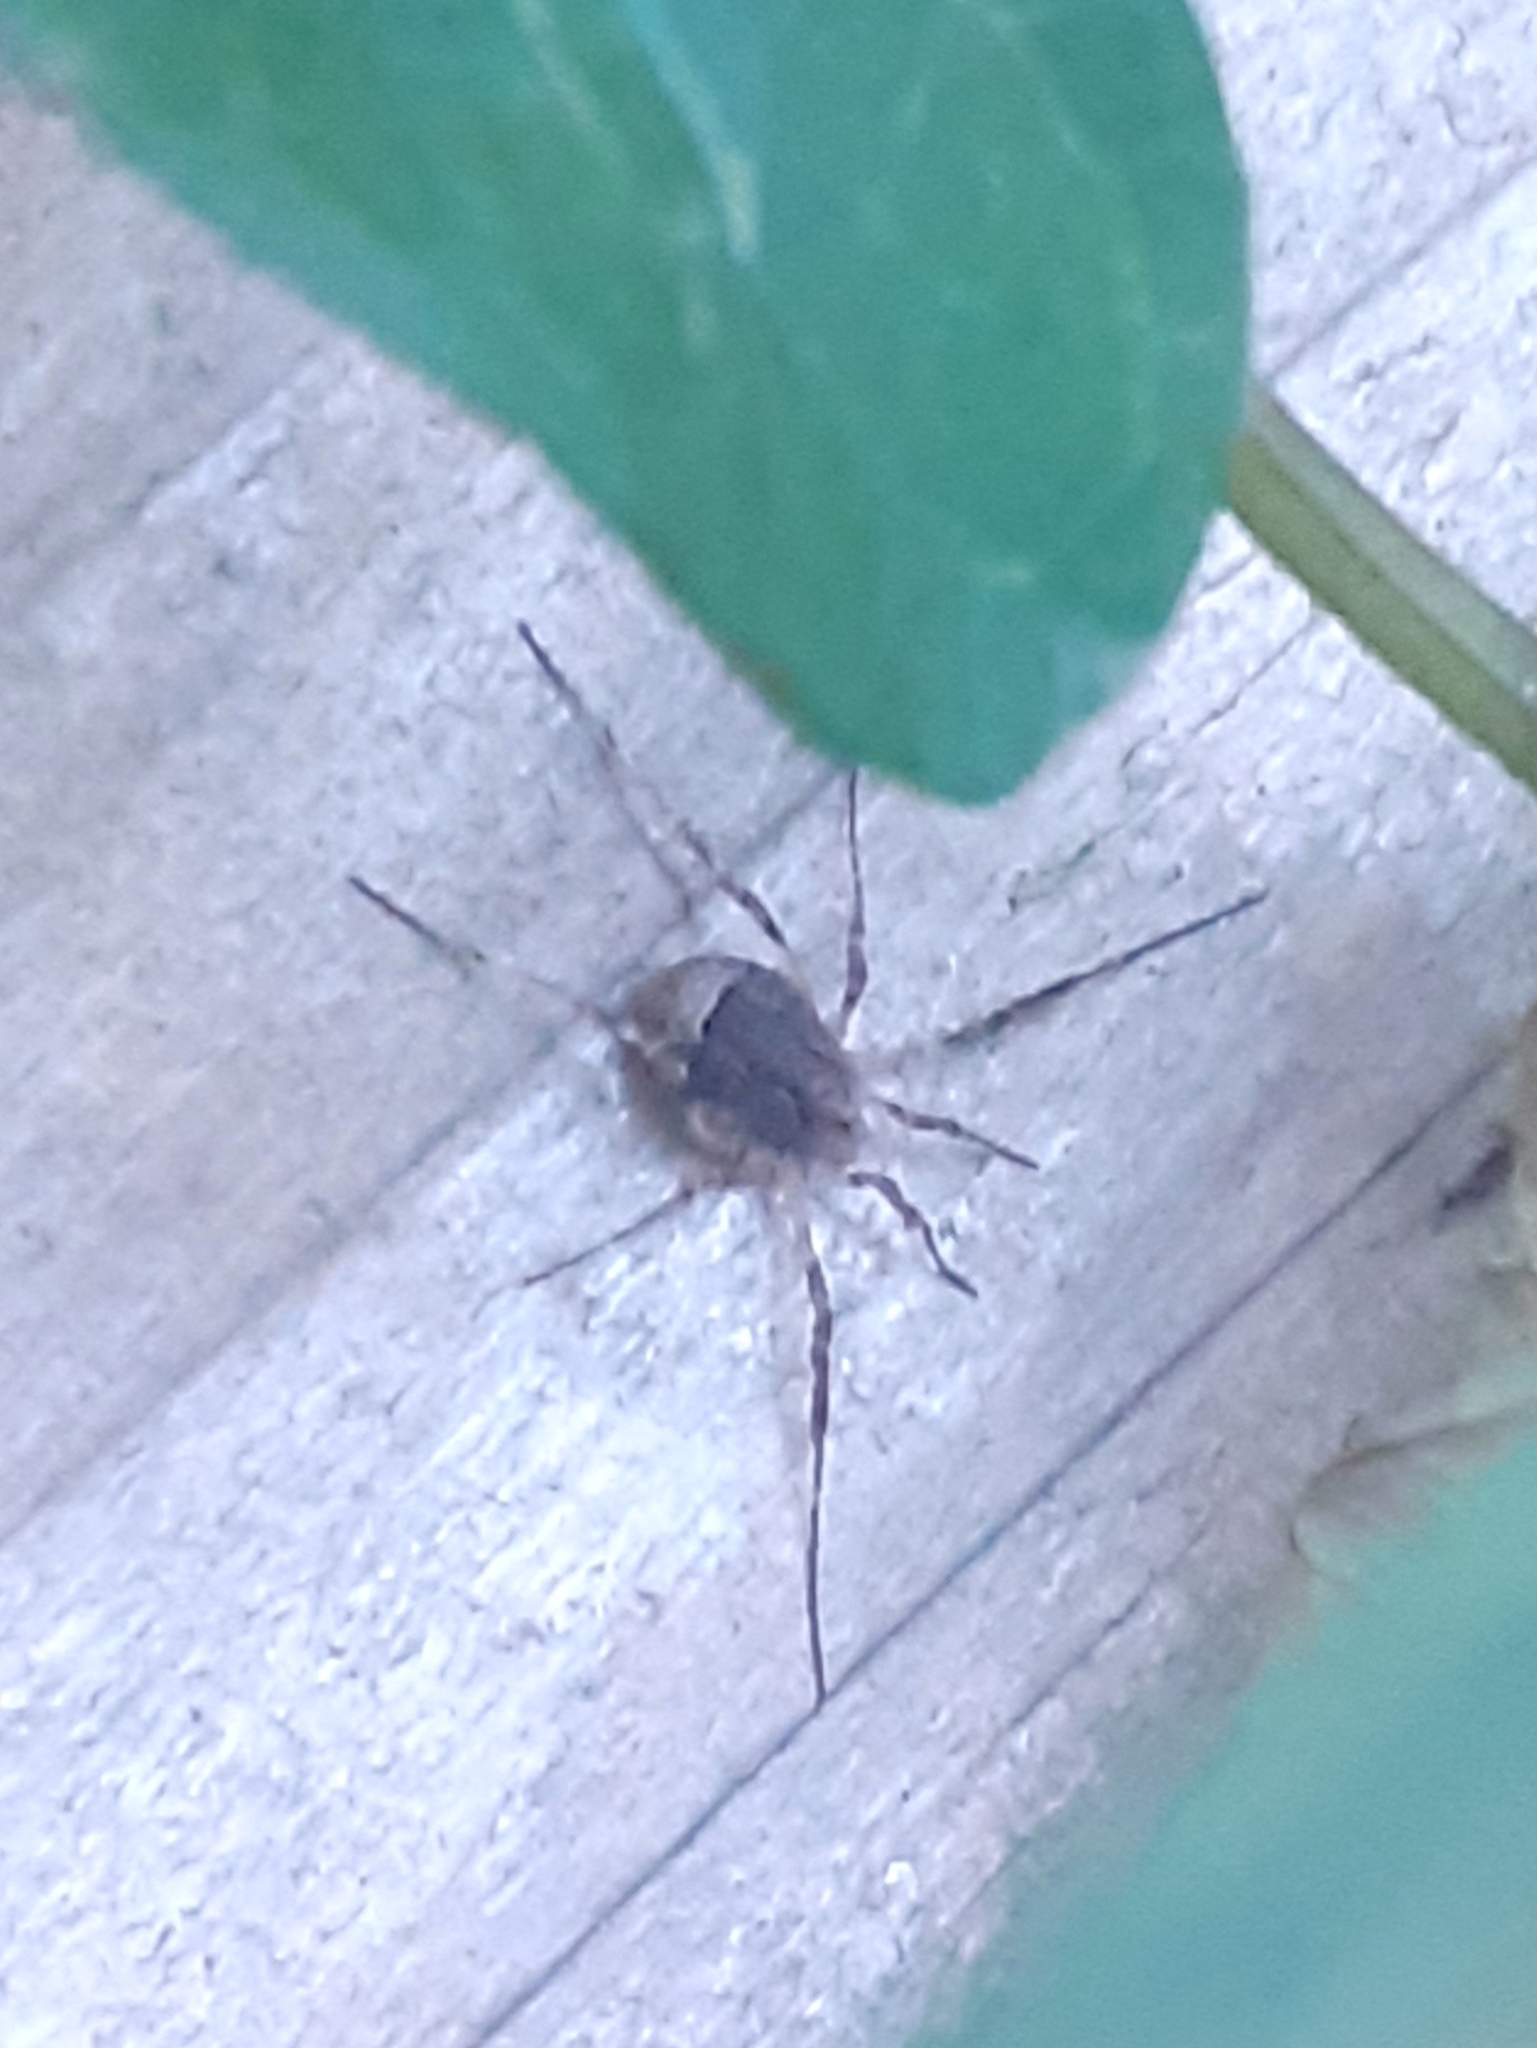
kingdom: Animalia
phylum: Arthropoda
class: Arachnida
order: Opiliones
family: Phalangiidae
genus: Odiellus
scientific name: Odiellus spinosus
